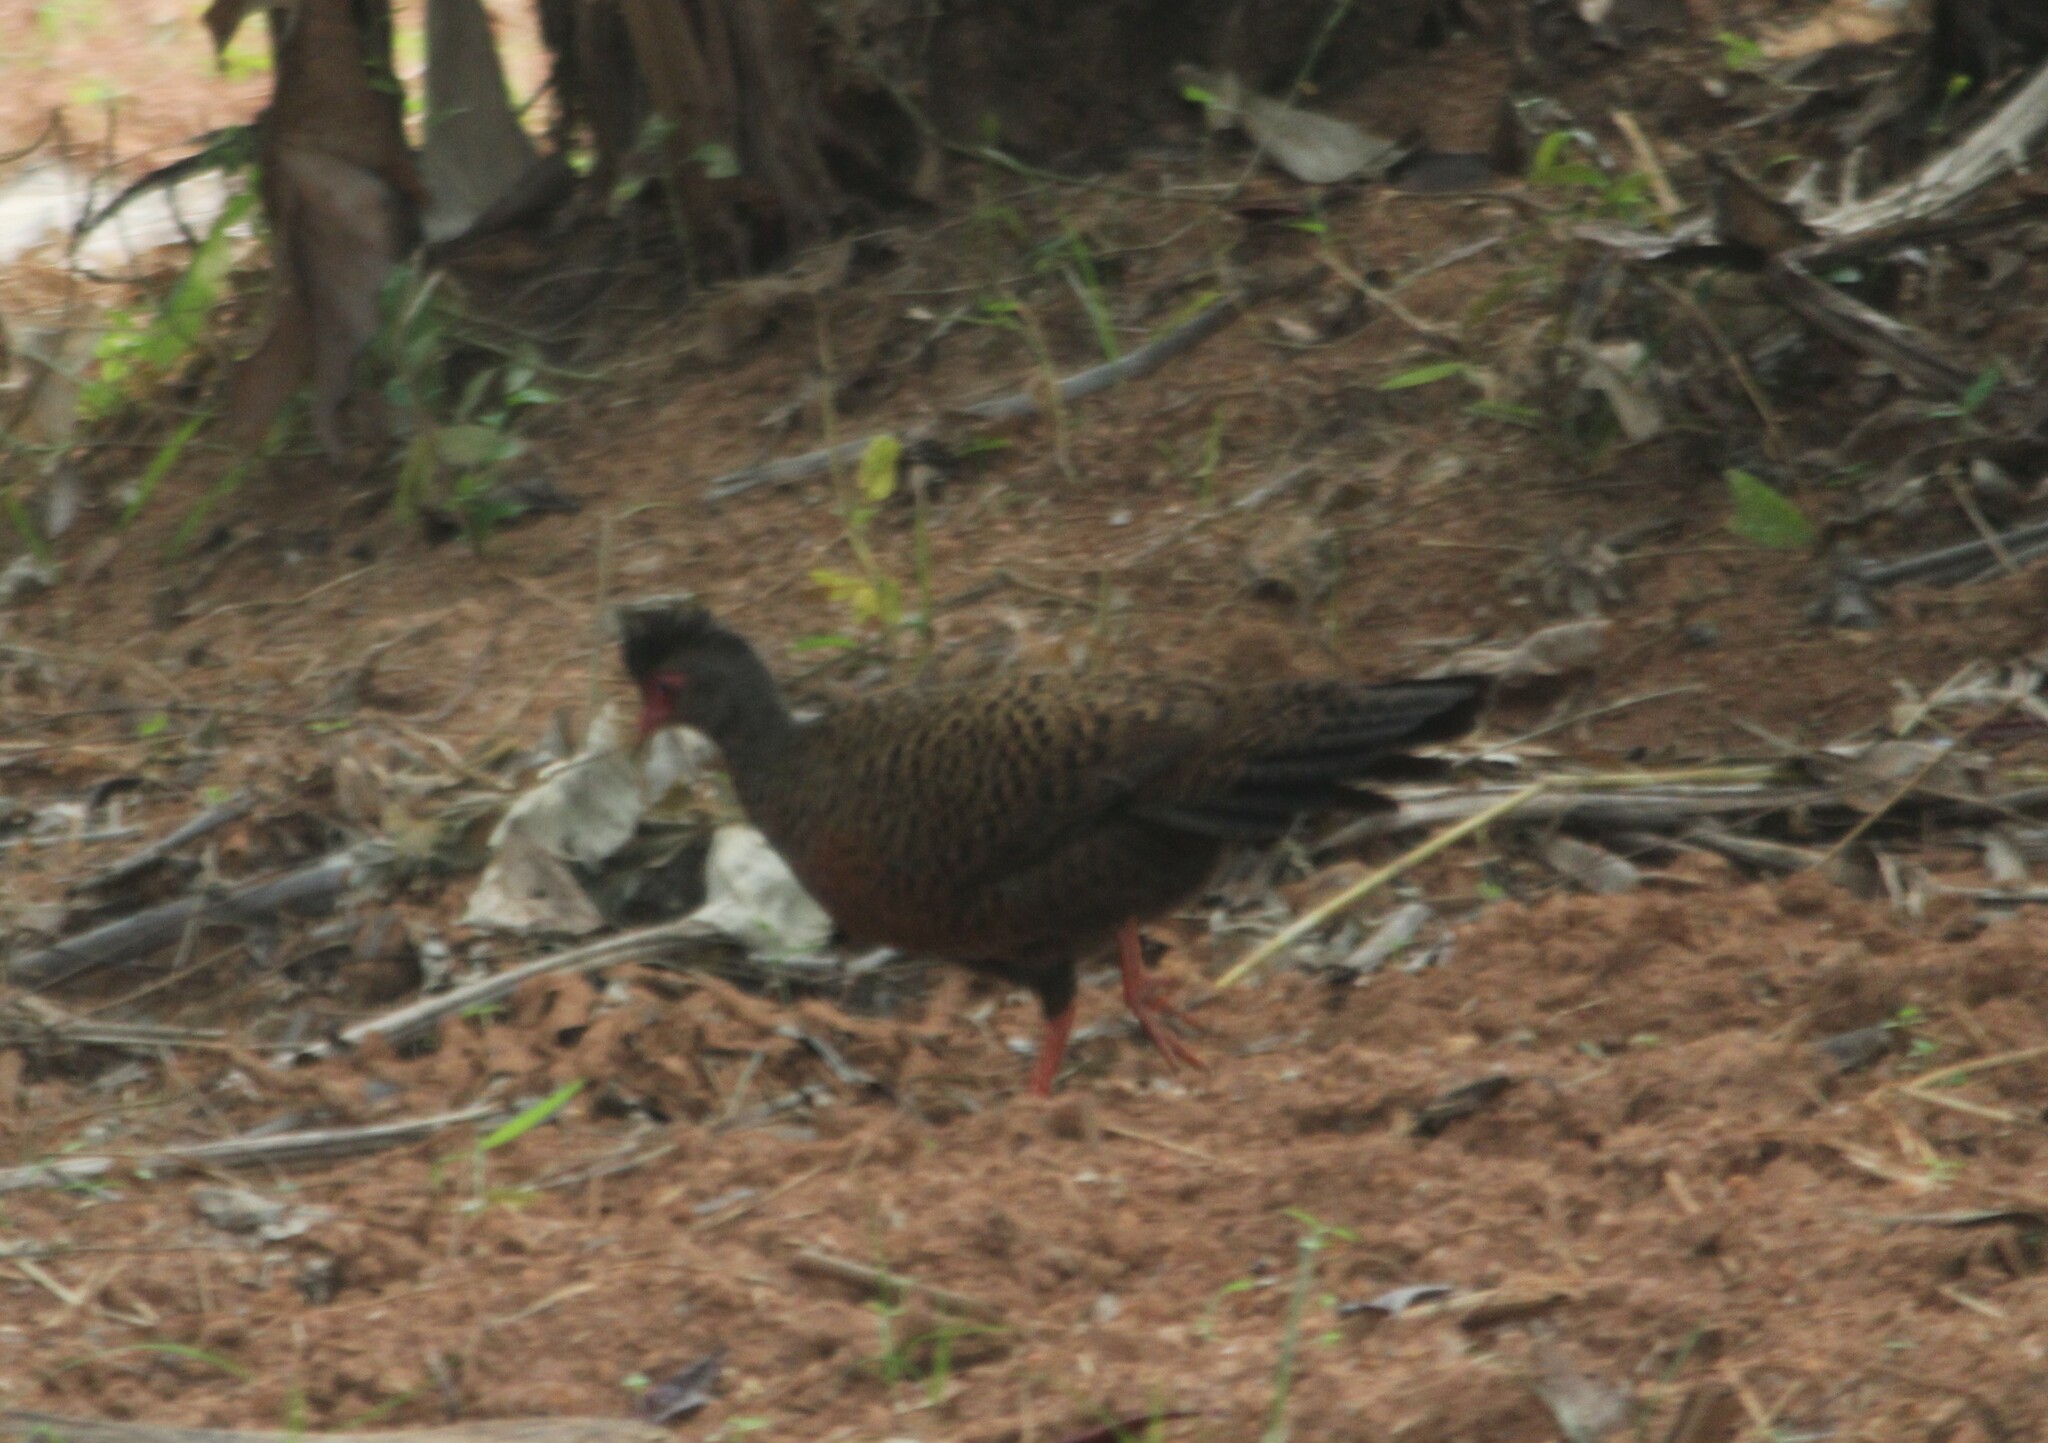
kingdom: Animalia
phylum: Chordata
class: Aves
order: Galliformes
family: Phasianidae
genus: Galloperdix
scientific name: Galloperdix spadicea
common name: Red spurfowl
